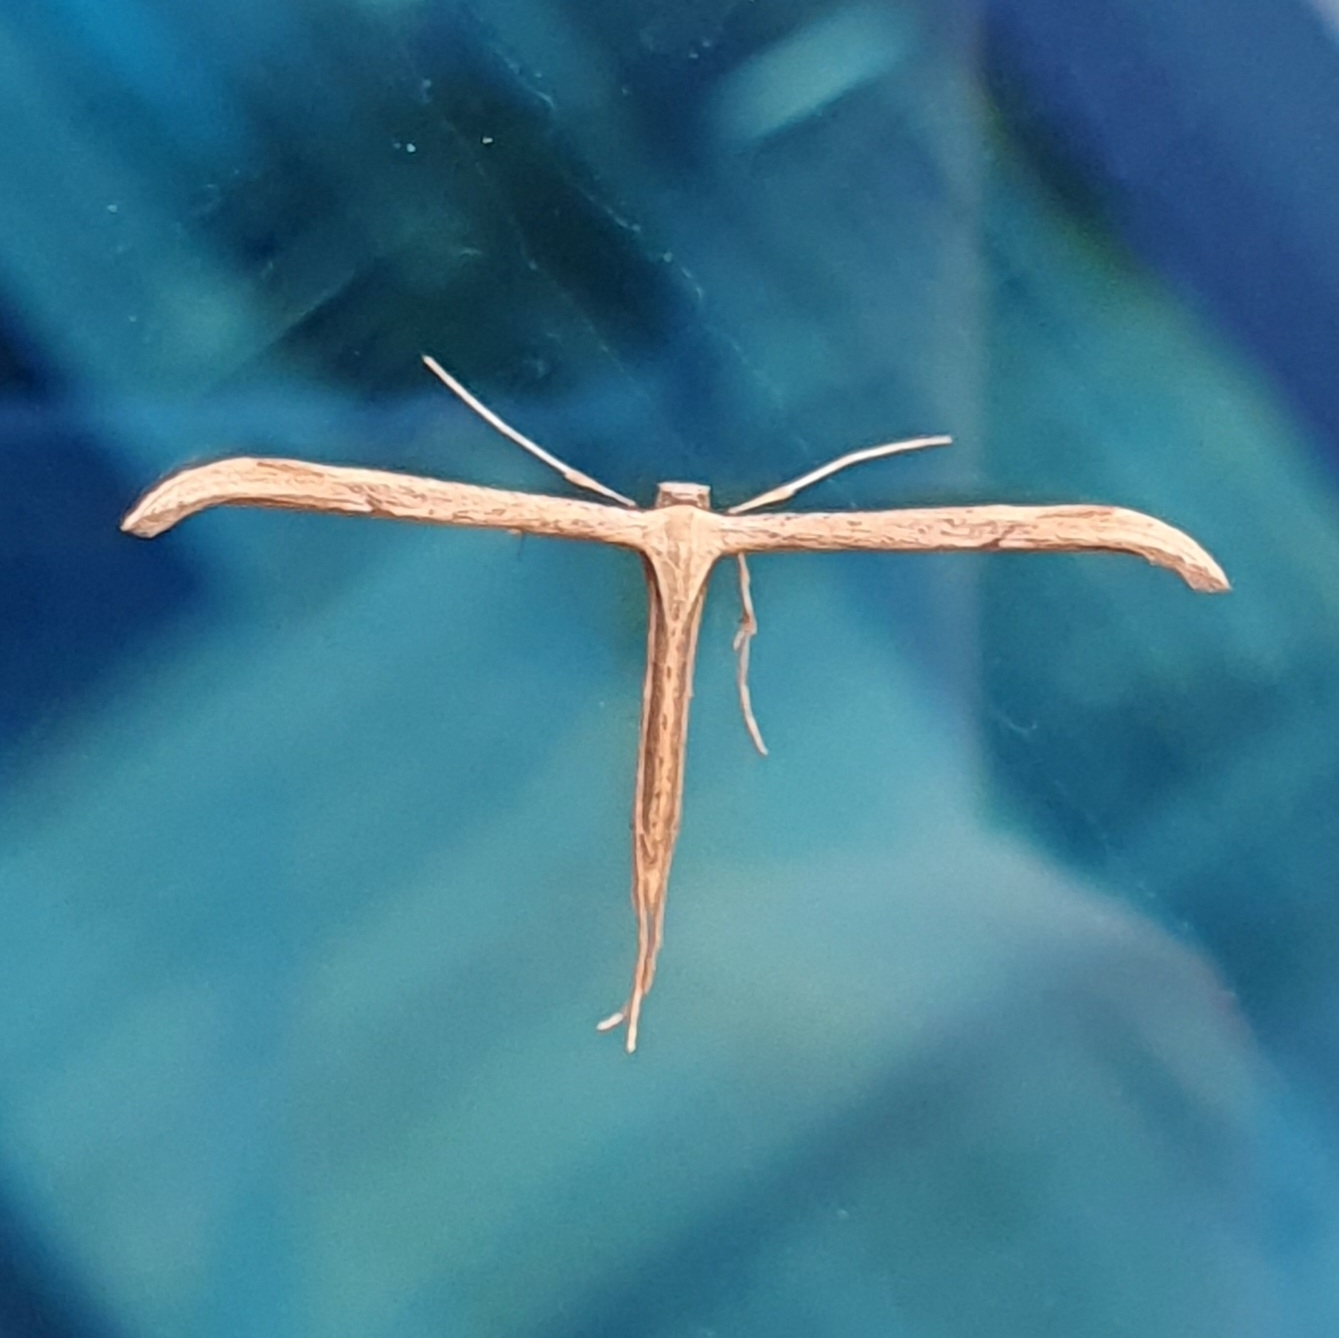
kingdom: Animalia
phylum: Arthropoda
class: Insecta
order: Lepidoptera
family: Pterophoridae
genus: Emmelina
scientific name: Emmelina monodactyla
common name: Common plume
